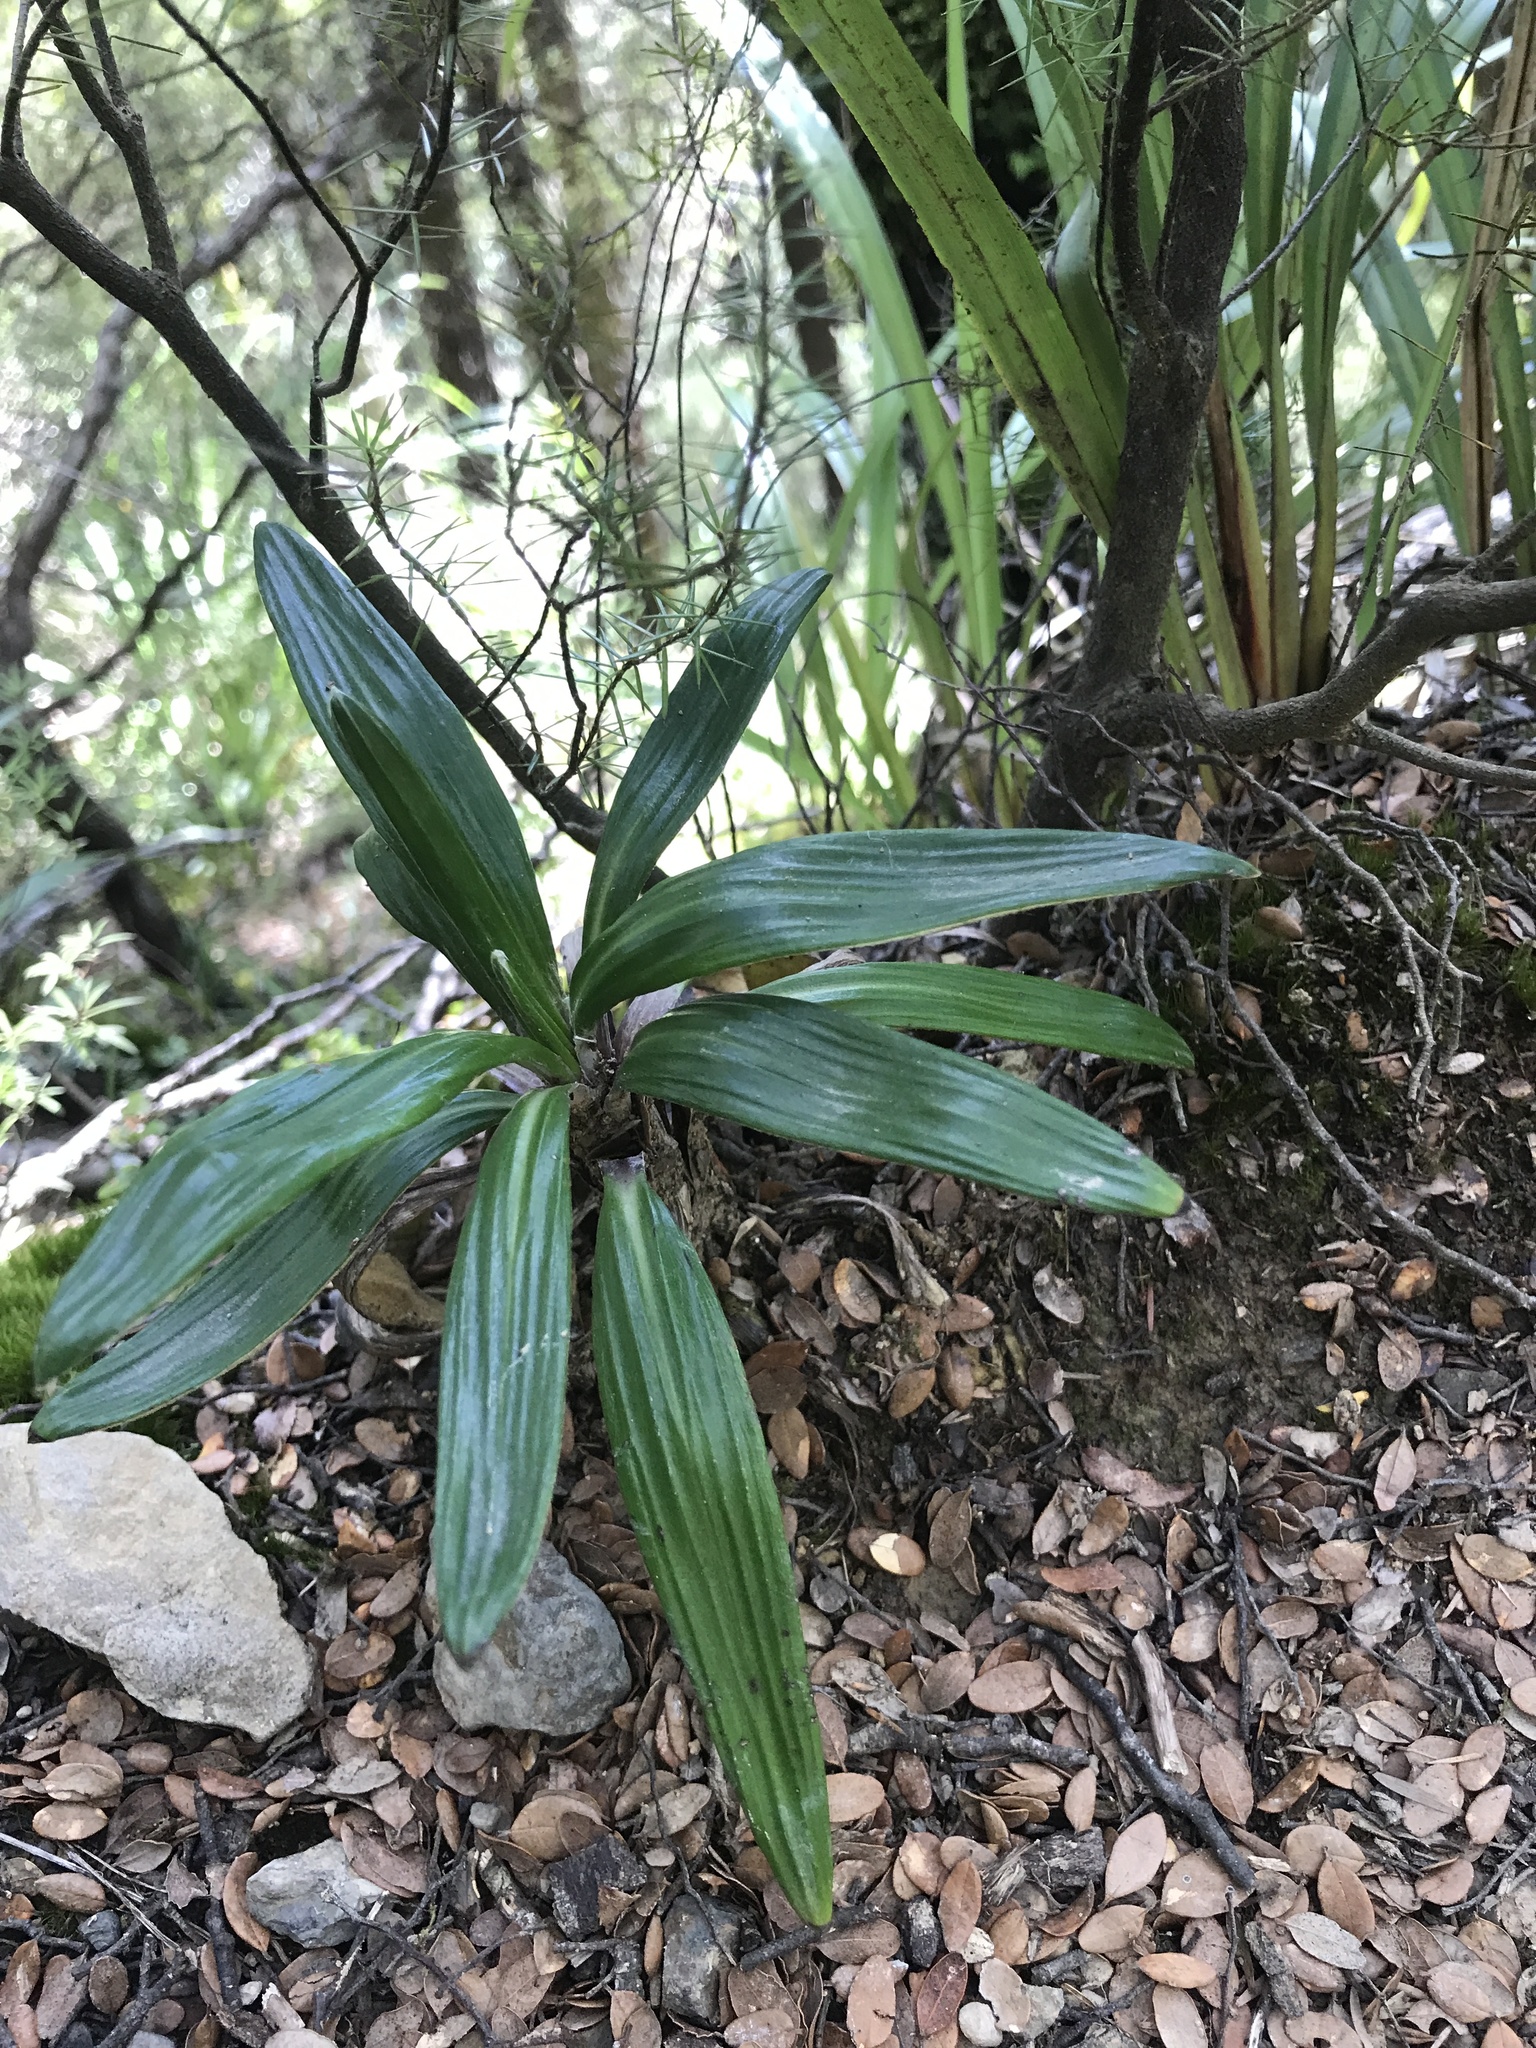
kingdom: Plantae
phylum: Tracheophyta
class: Magnoliopsida
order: Asterales
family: Asteraceae
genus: Celmisia
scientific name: Celmisia spectabilis
